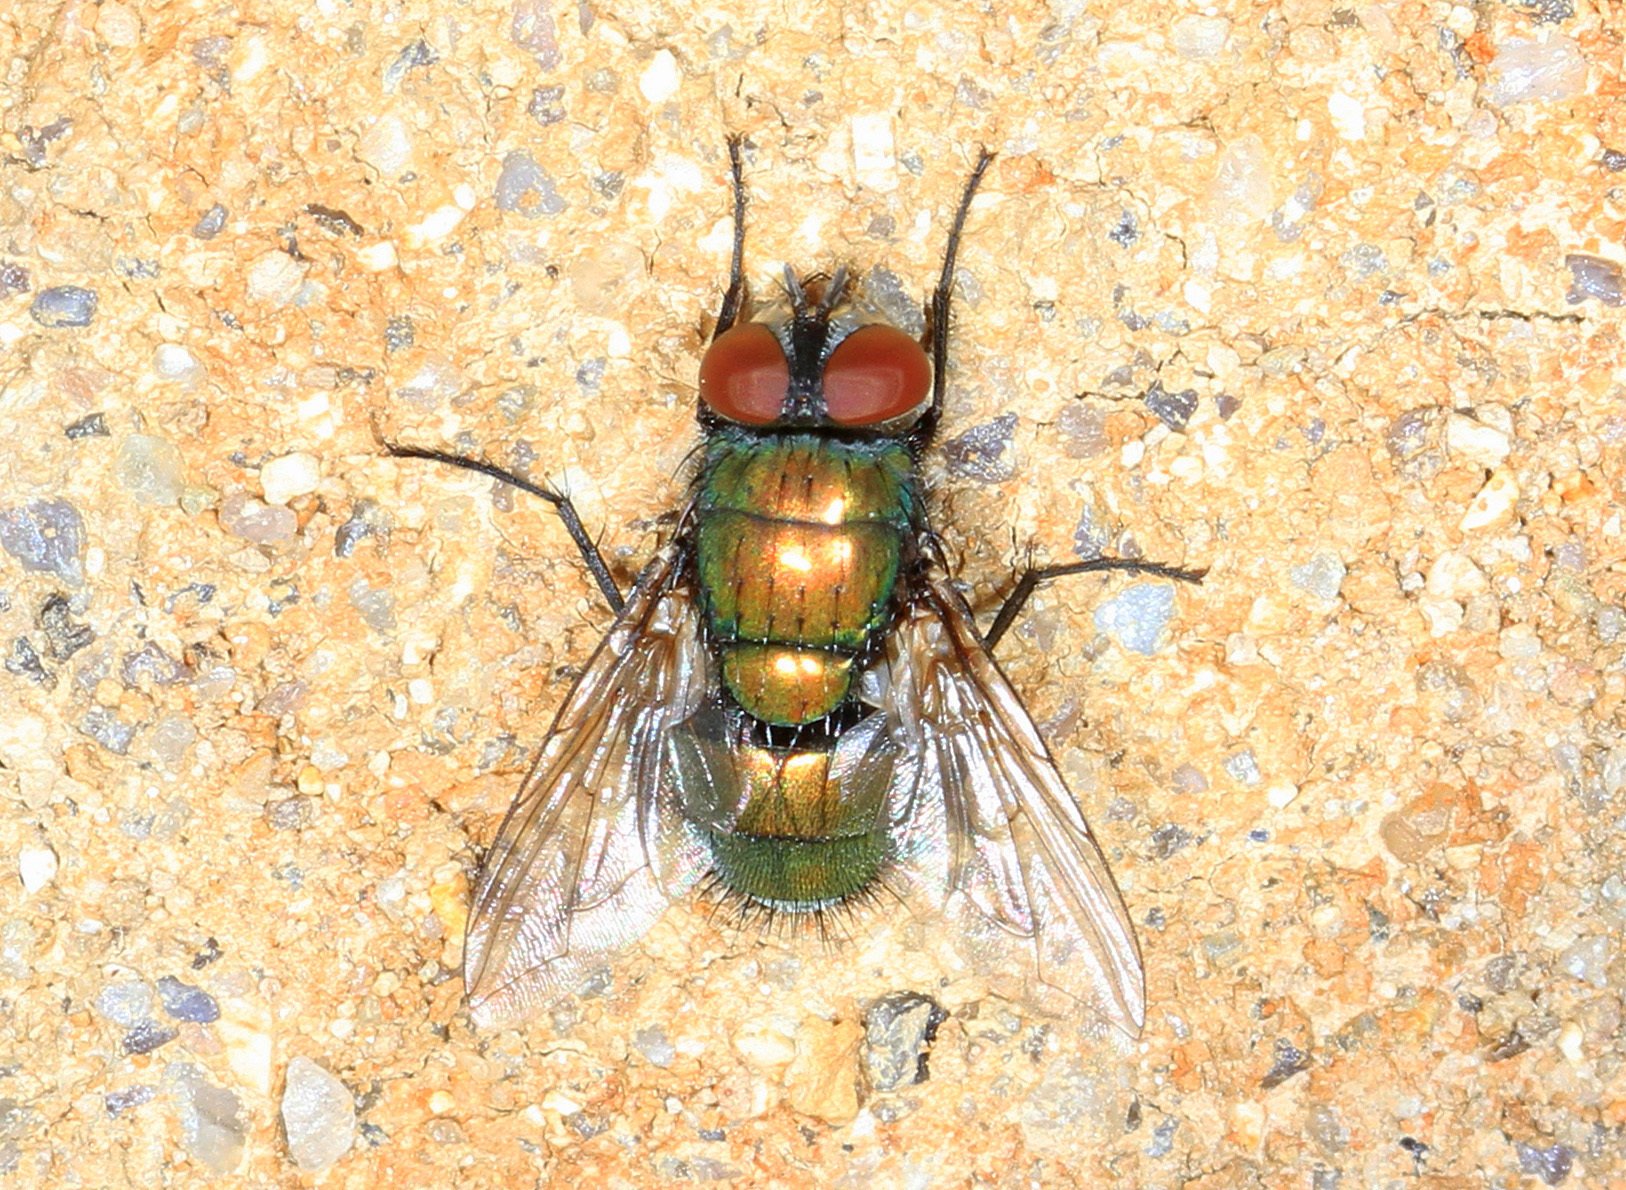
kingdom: Animalia
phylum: Arthropoda
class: Insecta
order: Diptera
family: Calliphoridae
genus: Lucilia
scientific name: Lucilia sericata
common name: Blow fly
